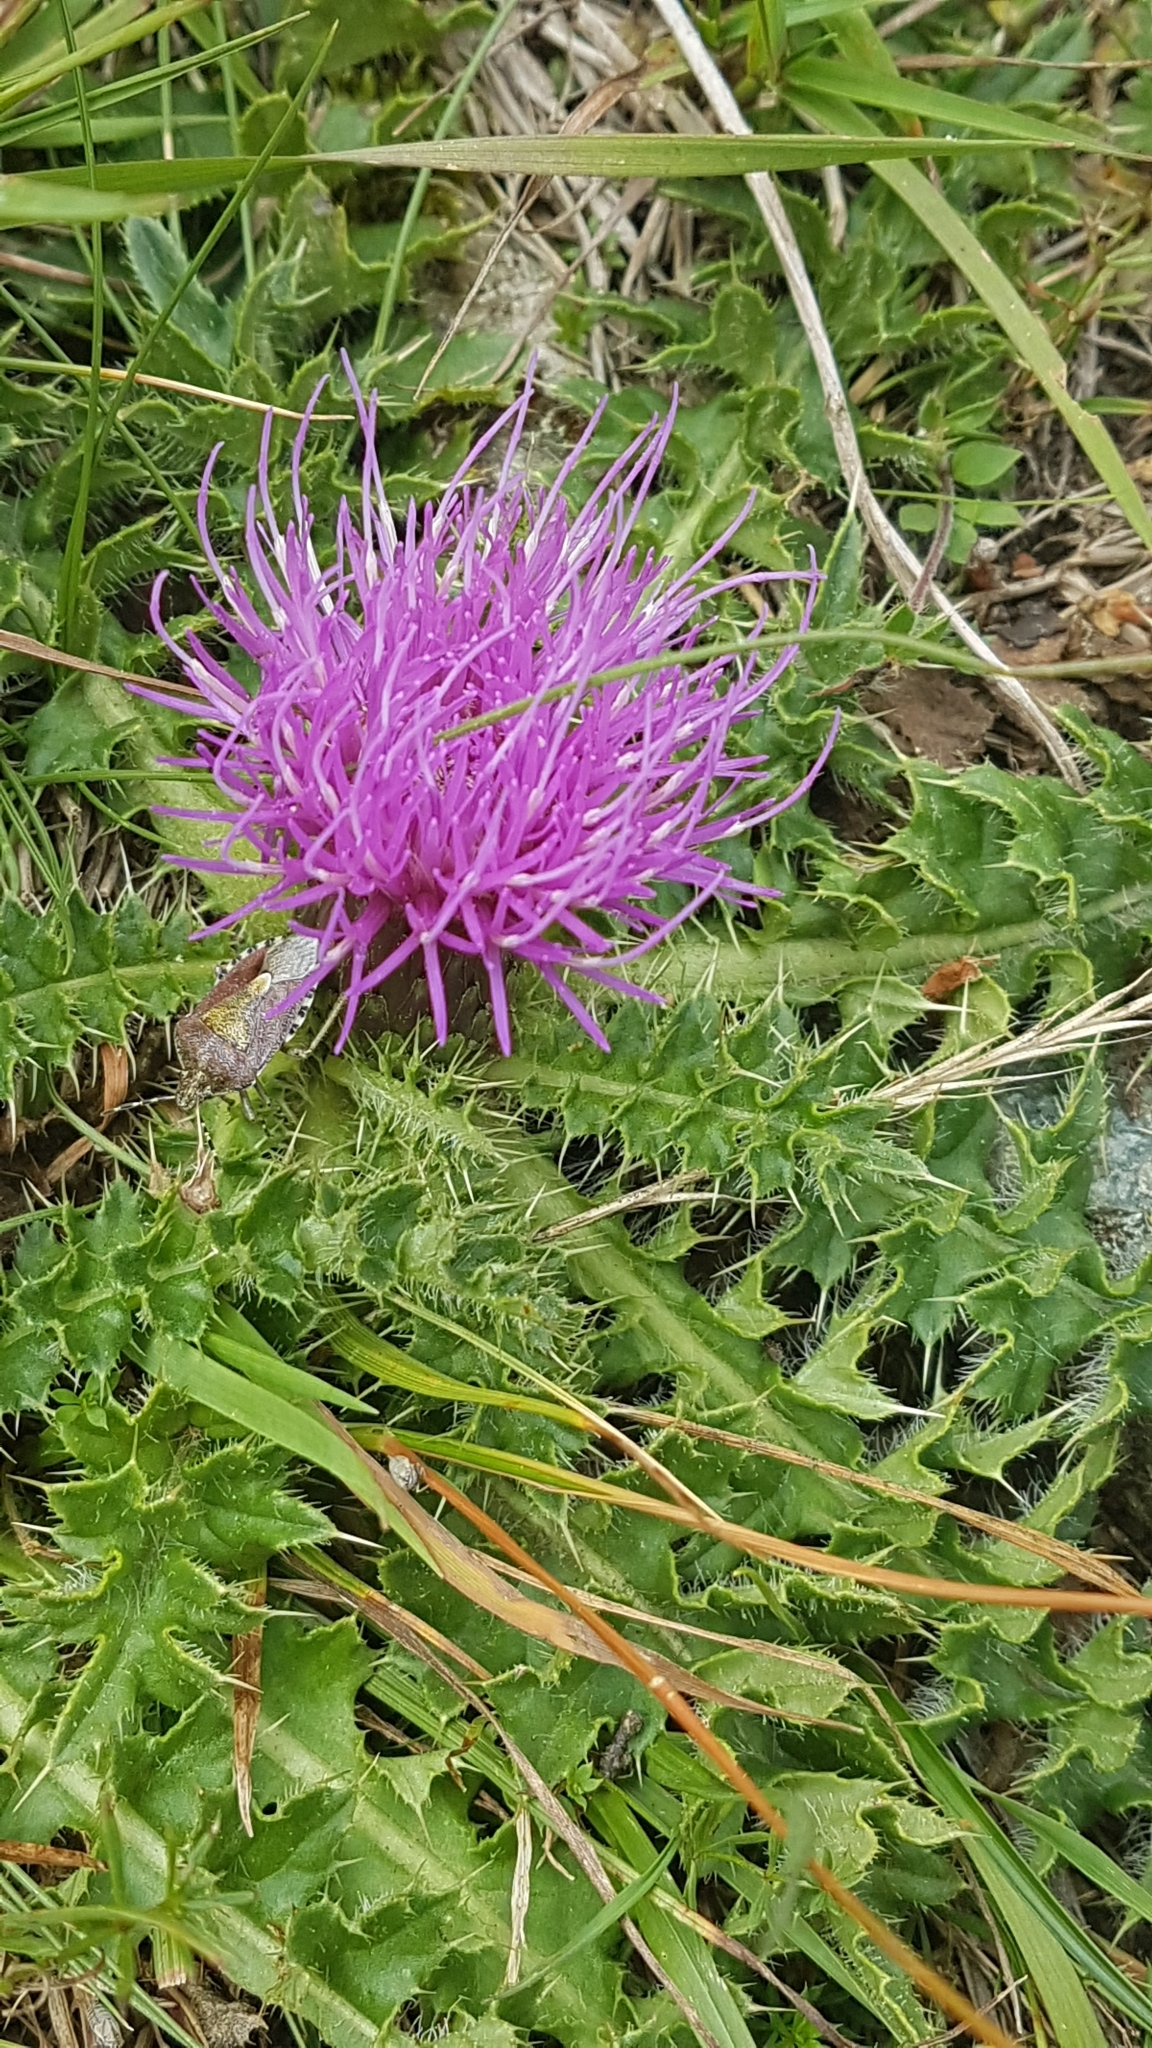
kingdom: Plantae
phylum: Tracheophyta
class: Magnoliopsida
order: Asterales
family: Asteraceae
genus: Cirsium
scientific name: Cirsium acaulon
